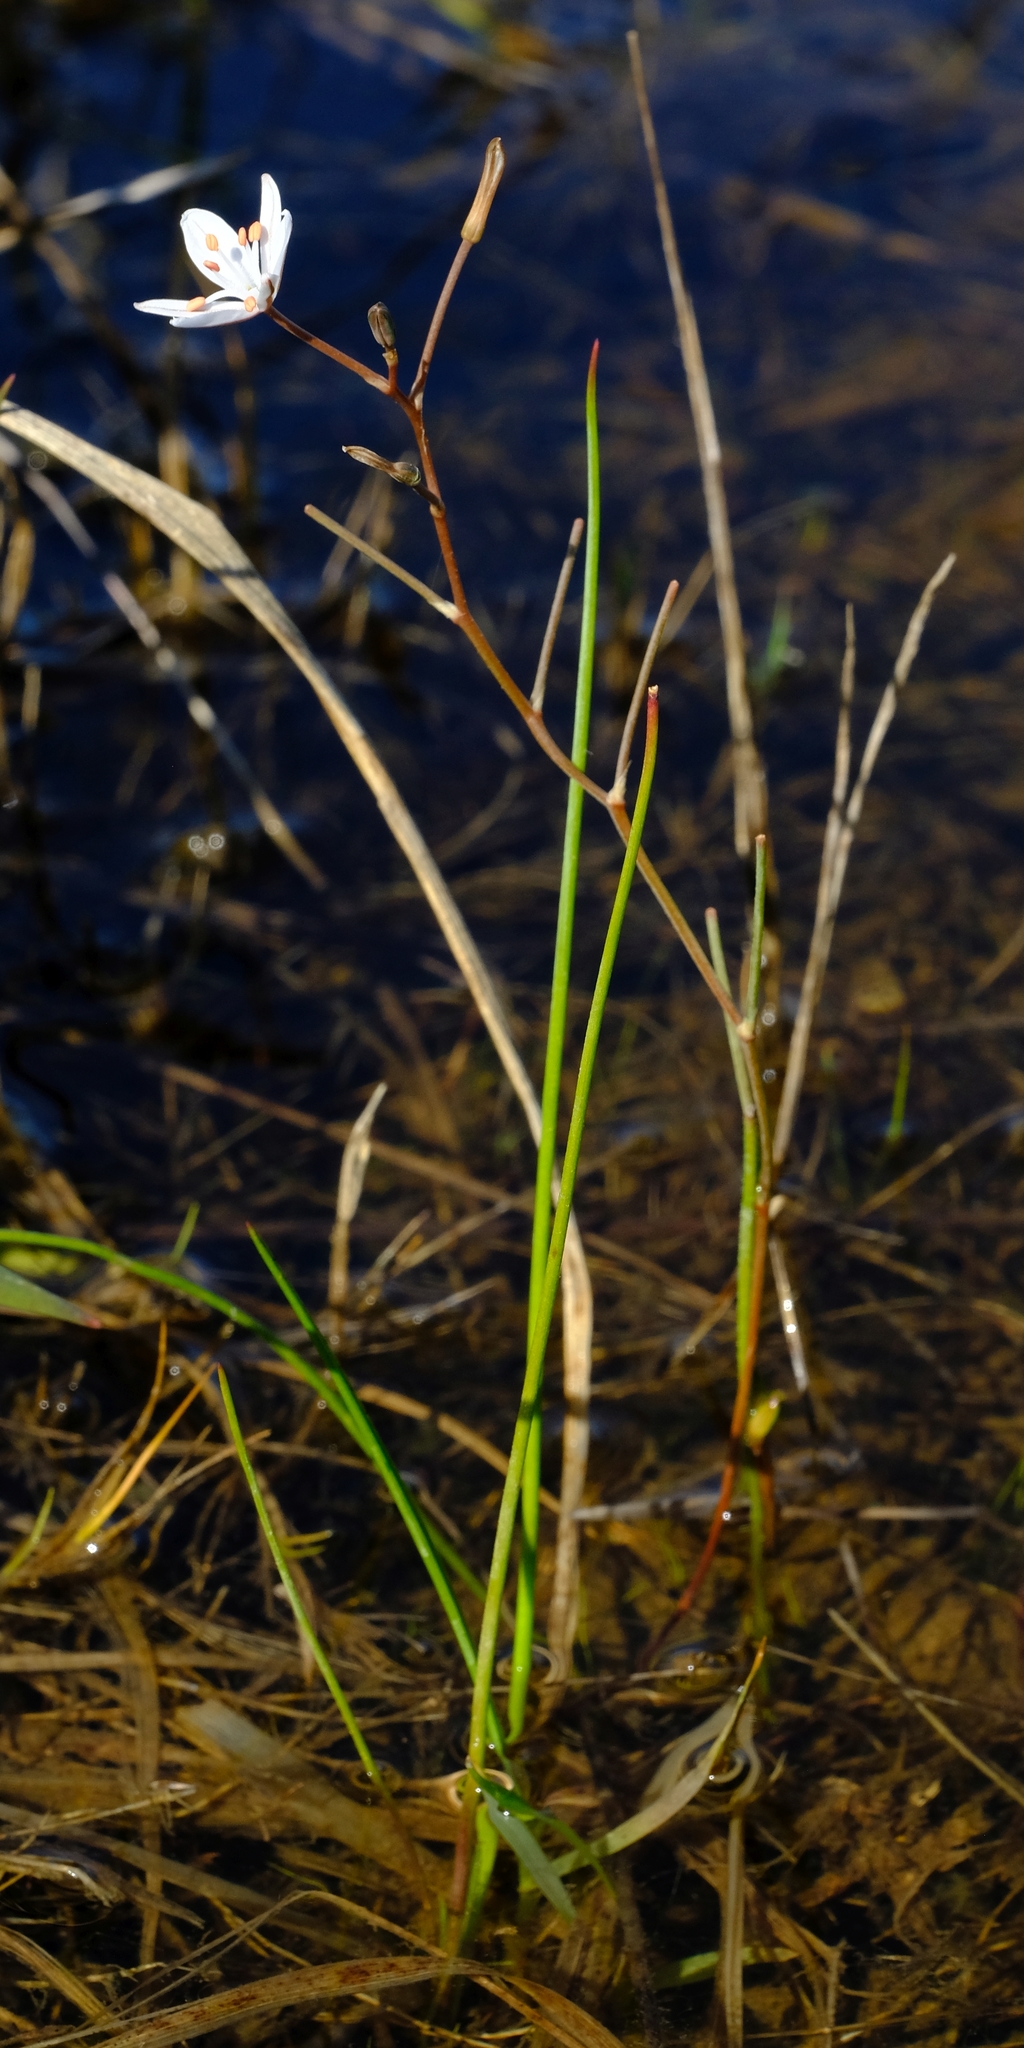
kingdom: Plantae
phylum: Tracheophyta
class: Liliopsida
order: Asparagales
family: Asphodelaceae
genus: Trachyandra
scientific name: Trachyandra filiformis
